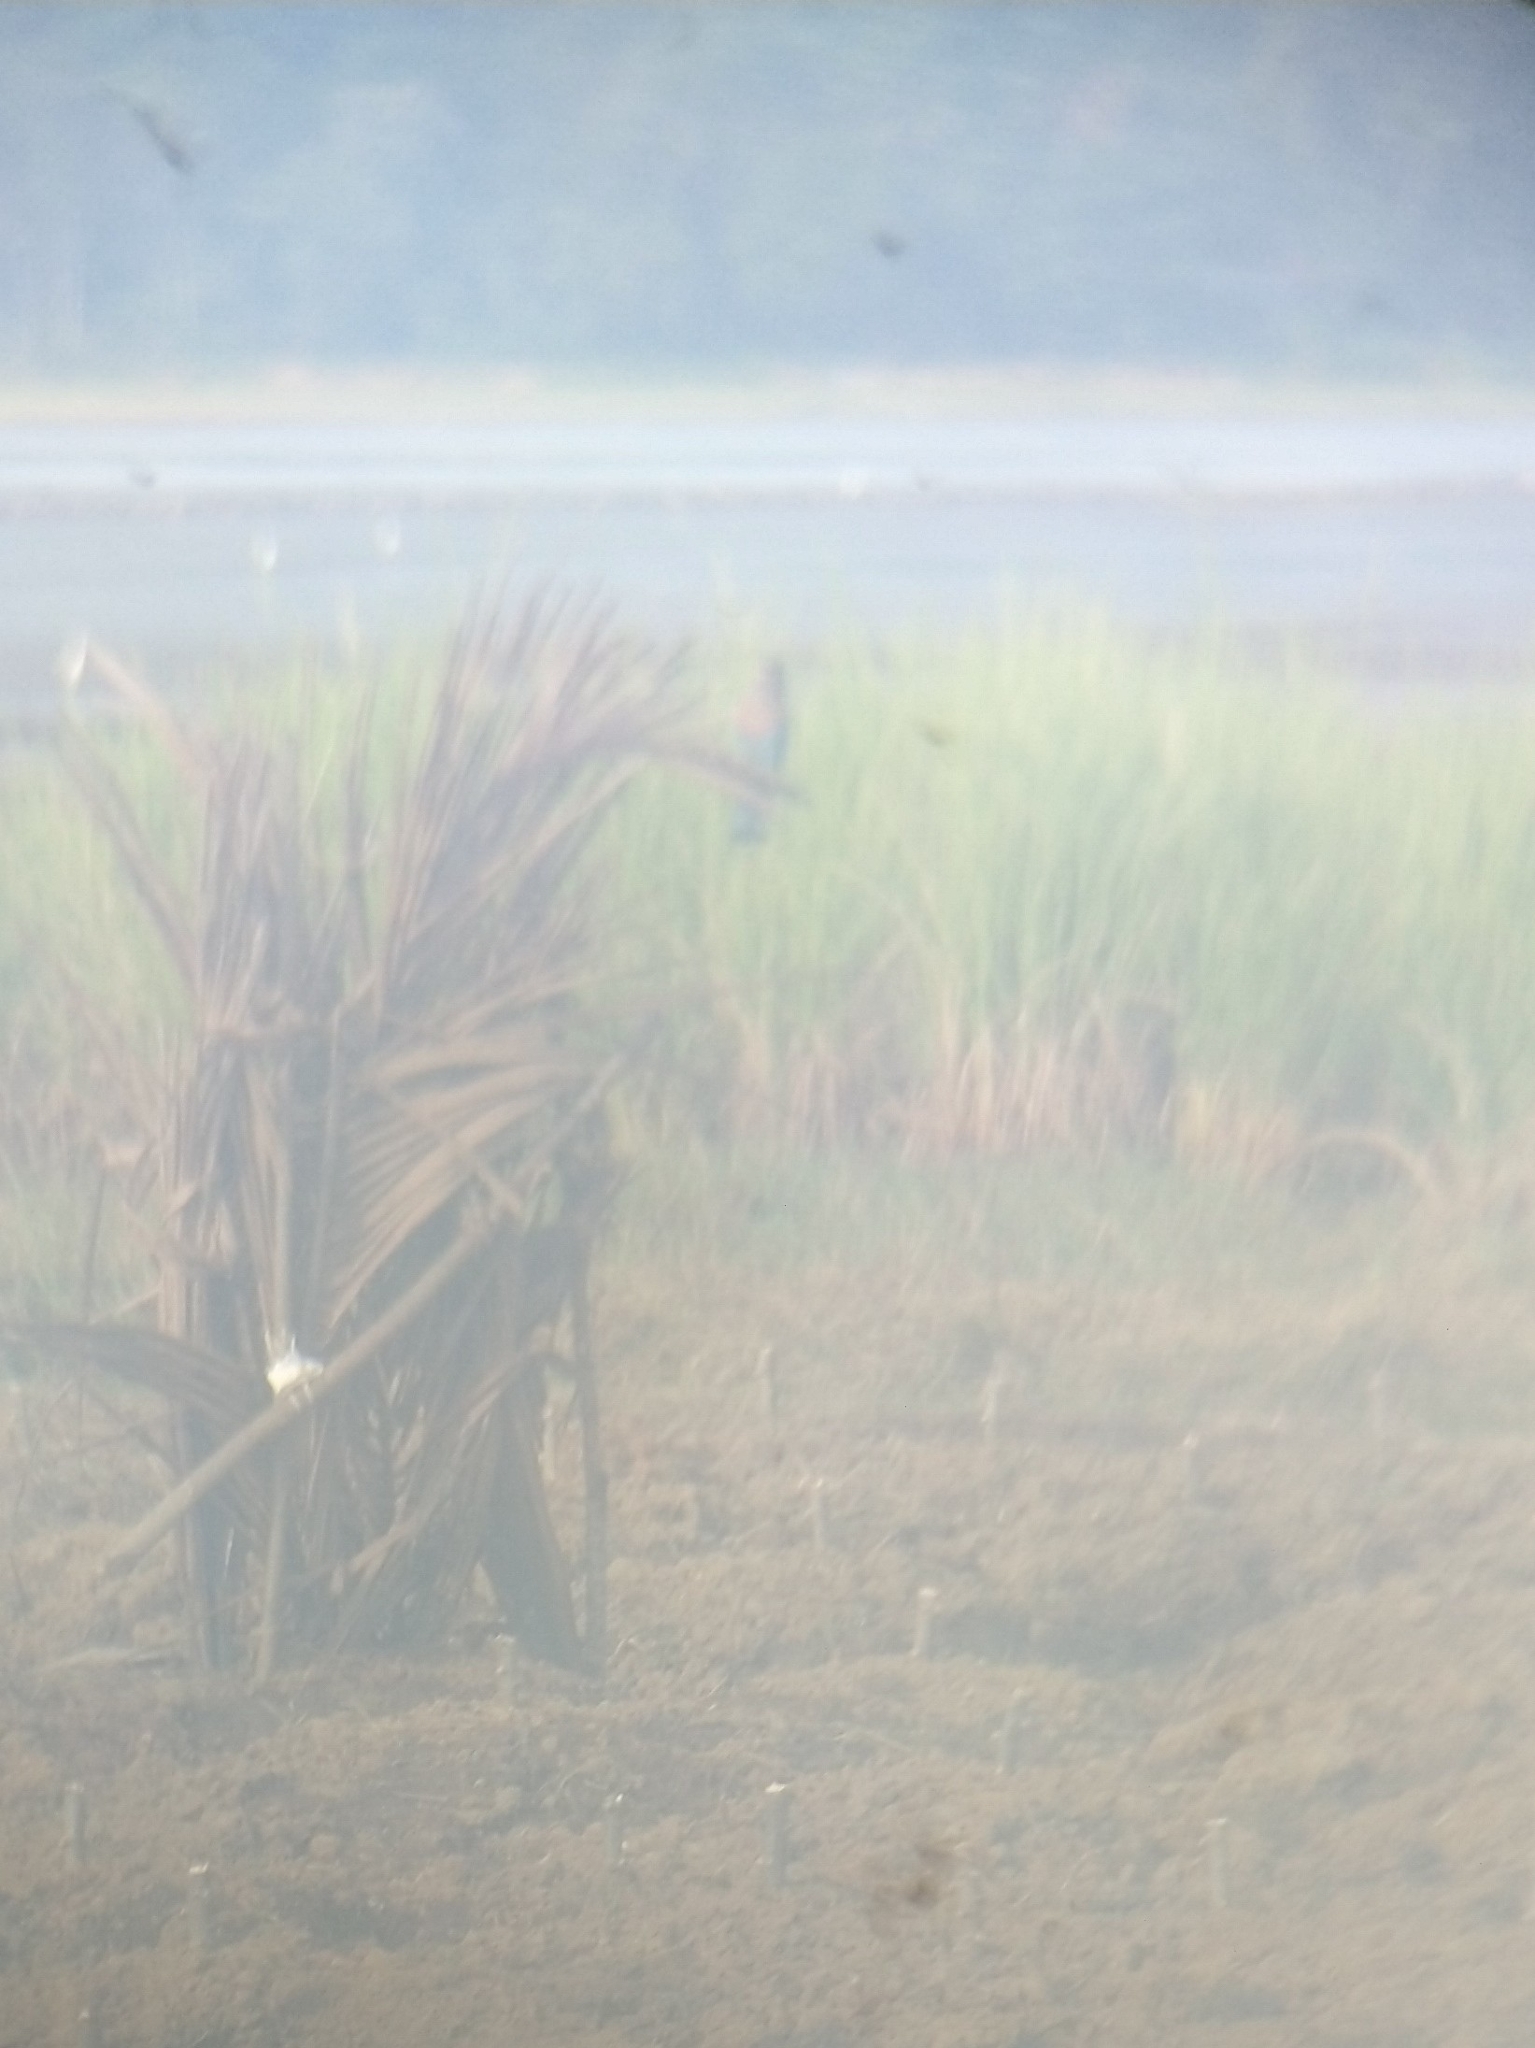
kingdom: Animalia
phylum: Chordata
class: Aves
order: Coraciiformes
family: Coraciidae
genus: Coracias
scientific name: Coracias benghalensis
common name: Indian roller
